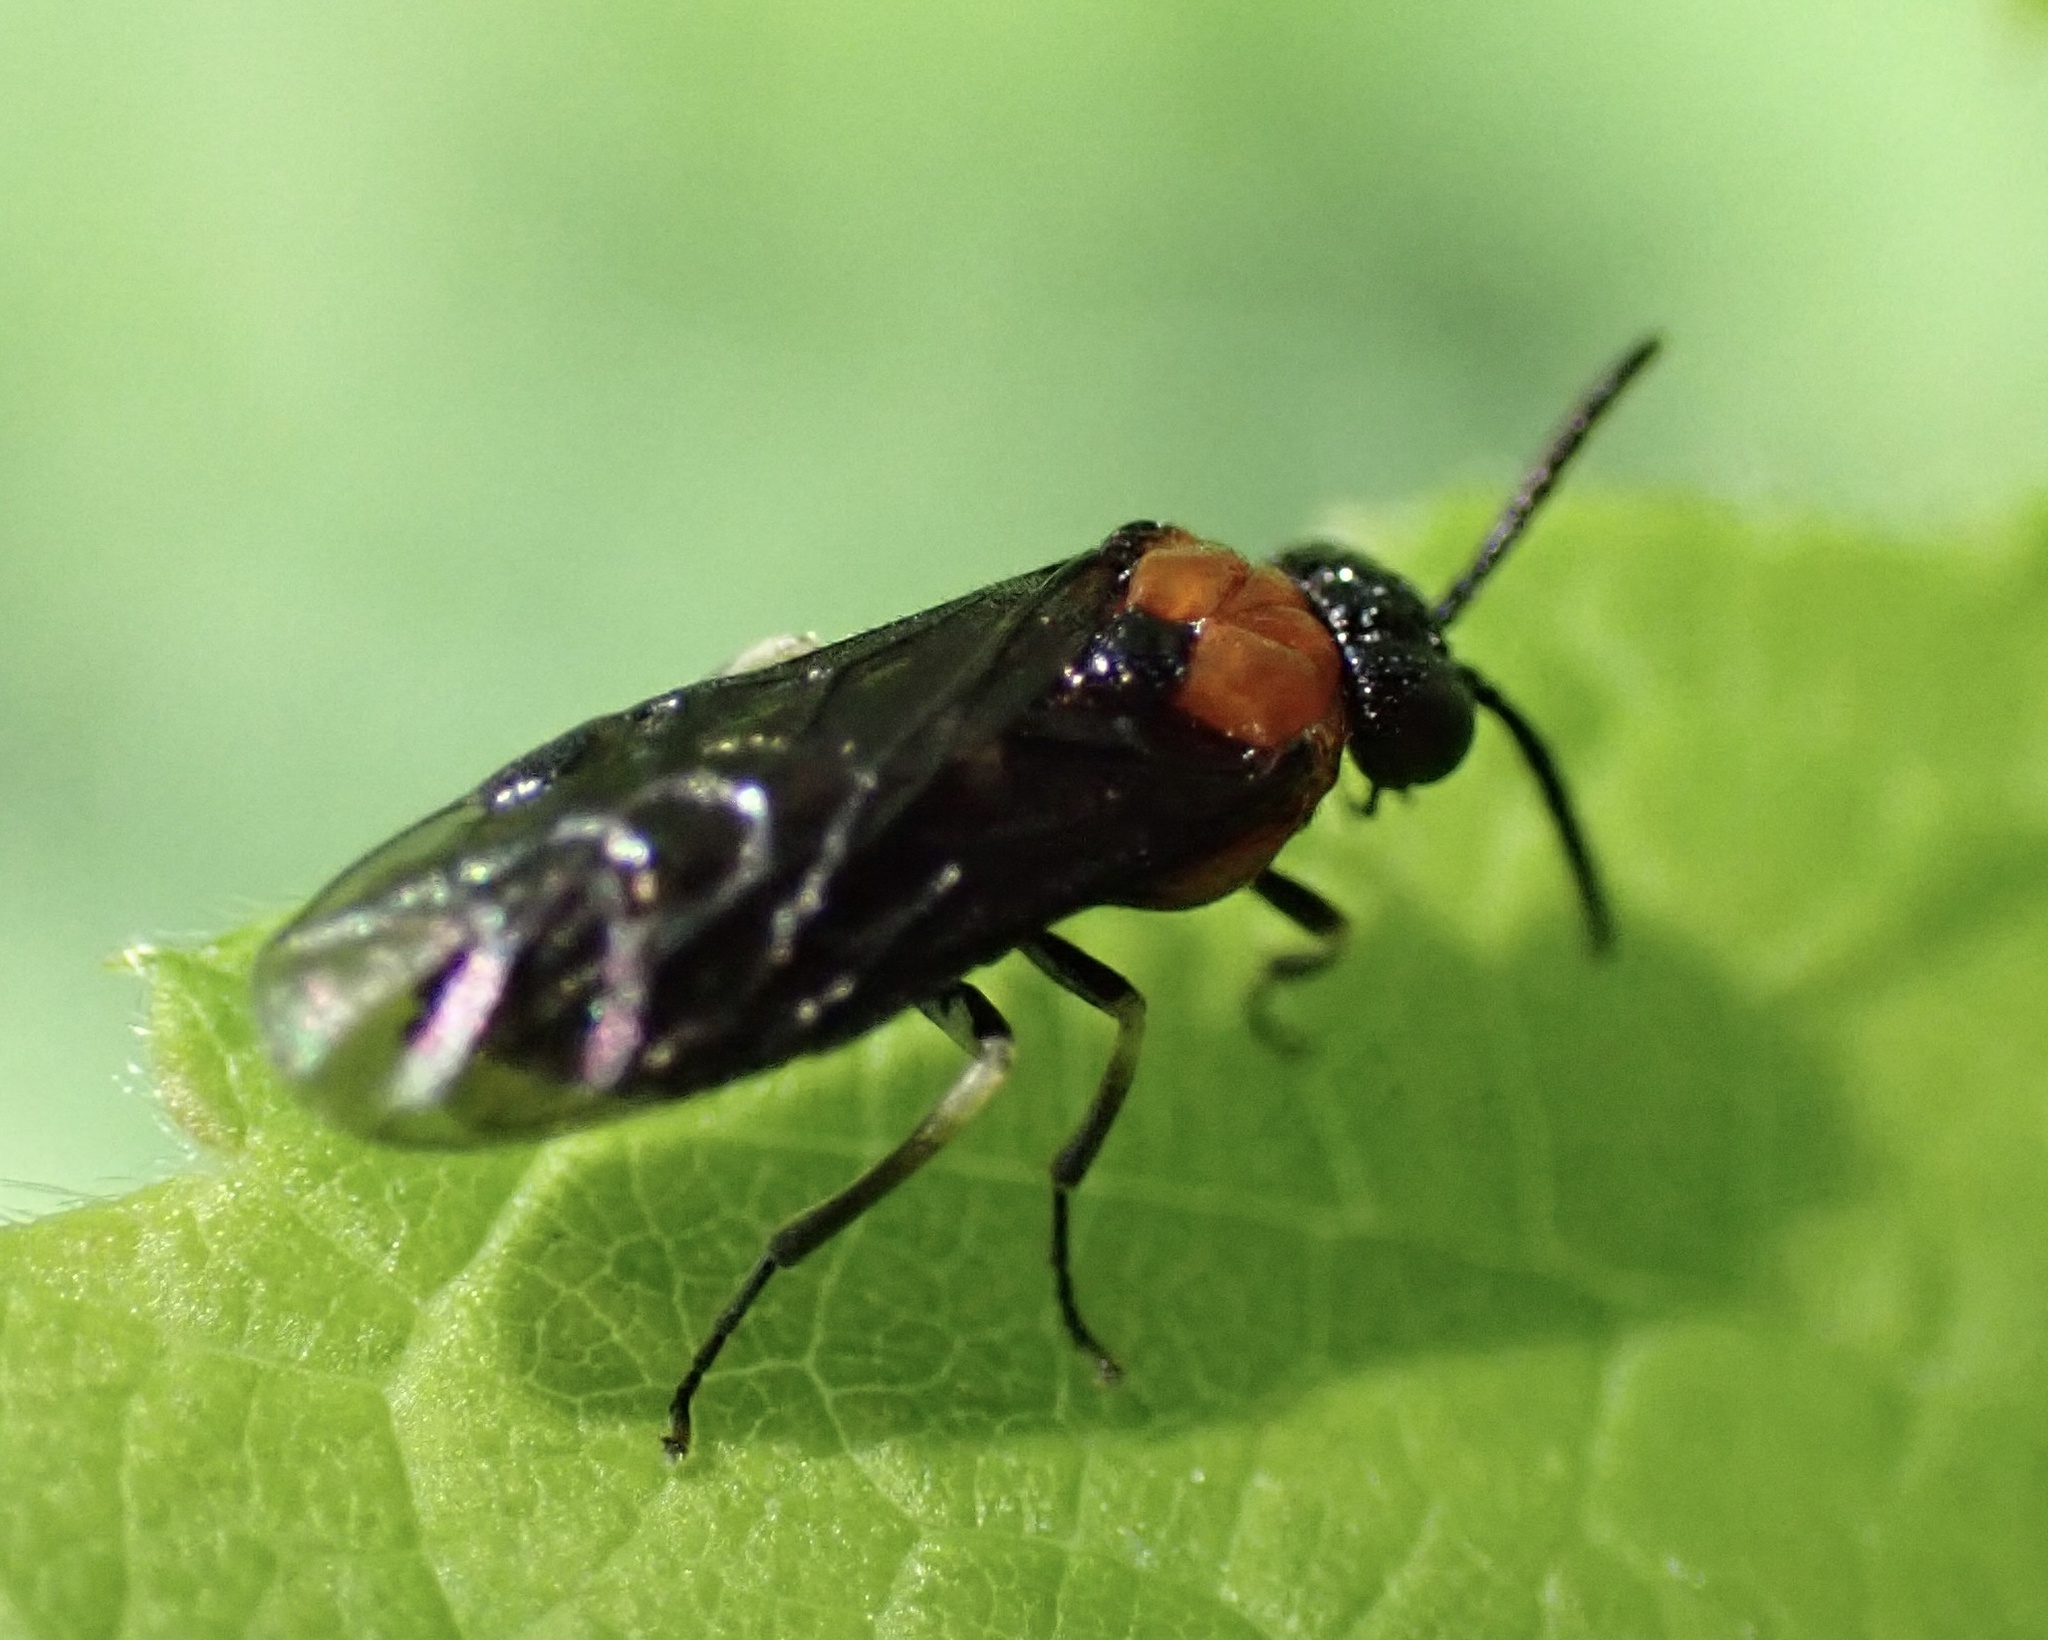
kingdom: Animalia
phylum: Arthropoda
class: Insecta
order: Hymenoptera
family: Tenthredinidae
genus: Eutomostethus
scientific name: Eutomostethus ephippium
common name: Tenthredid wasp
